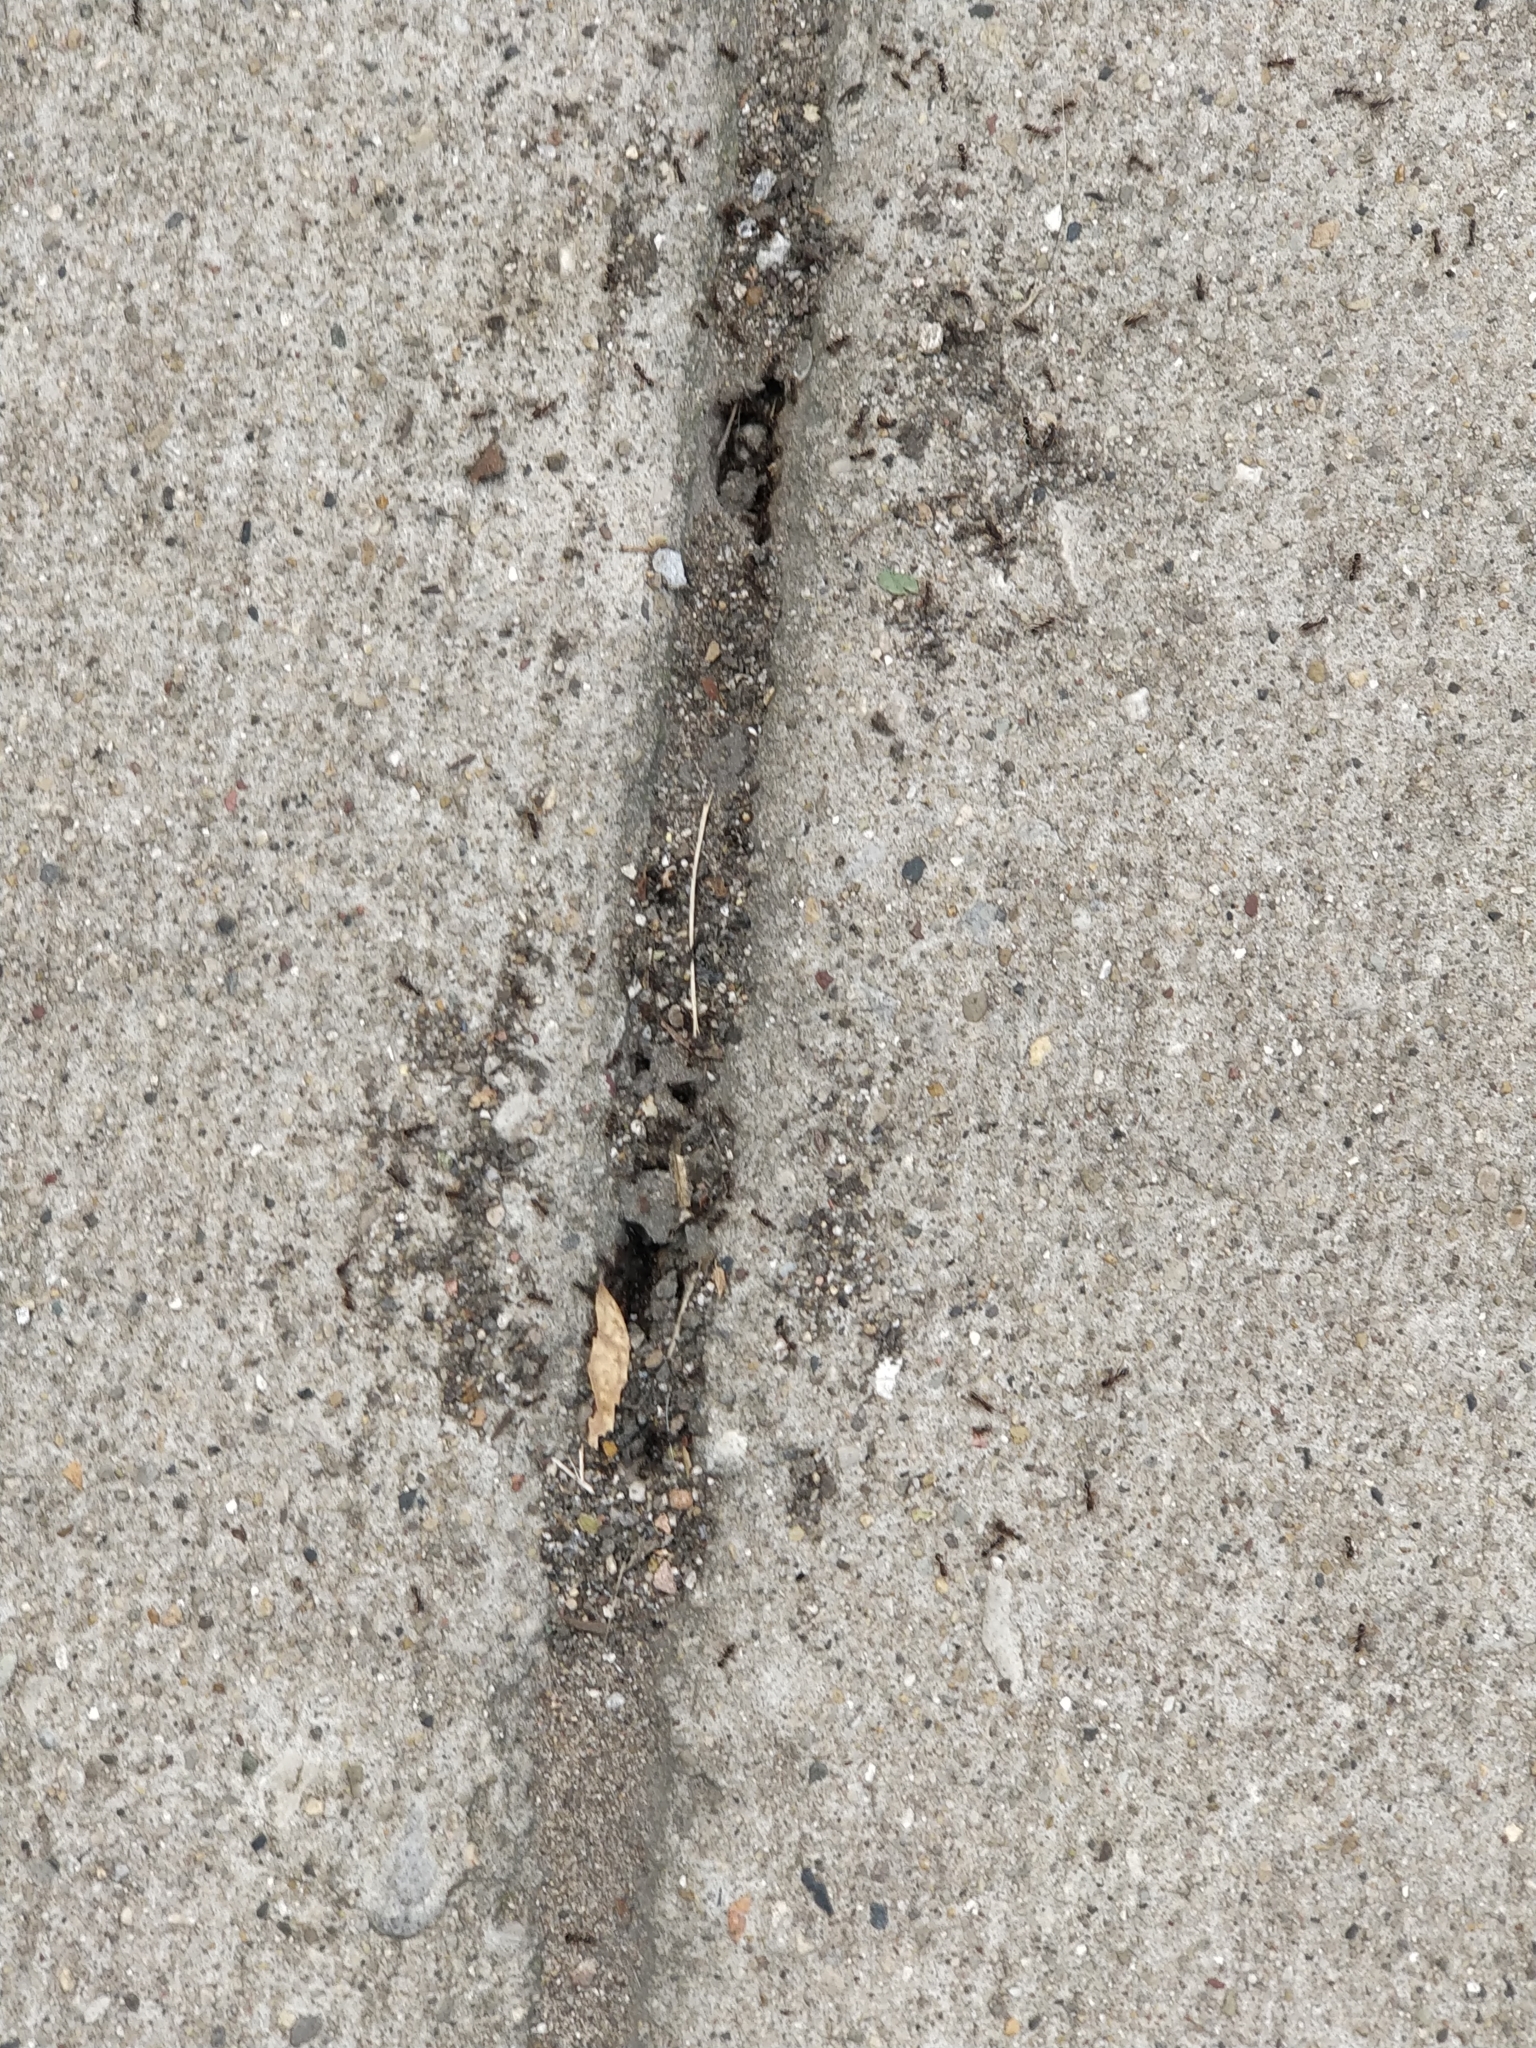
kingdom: Animalia
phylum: Arthropoda
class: Insecta
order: Hymenoptera
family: Formicidae
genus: Tetramorium
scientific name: Tetramorium immigrans
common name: Pavement ant
